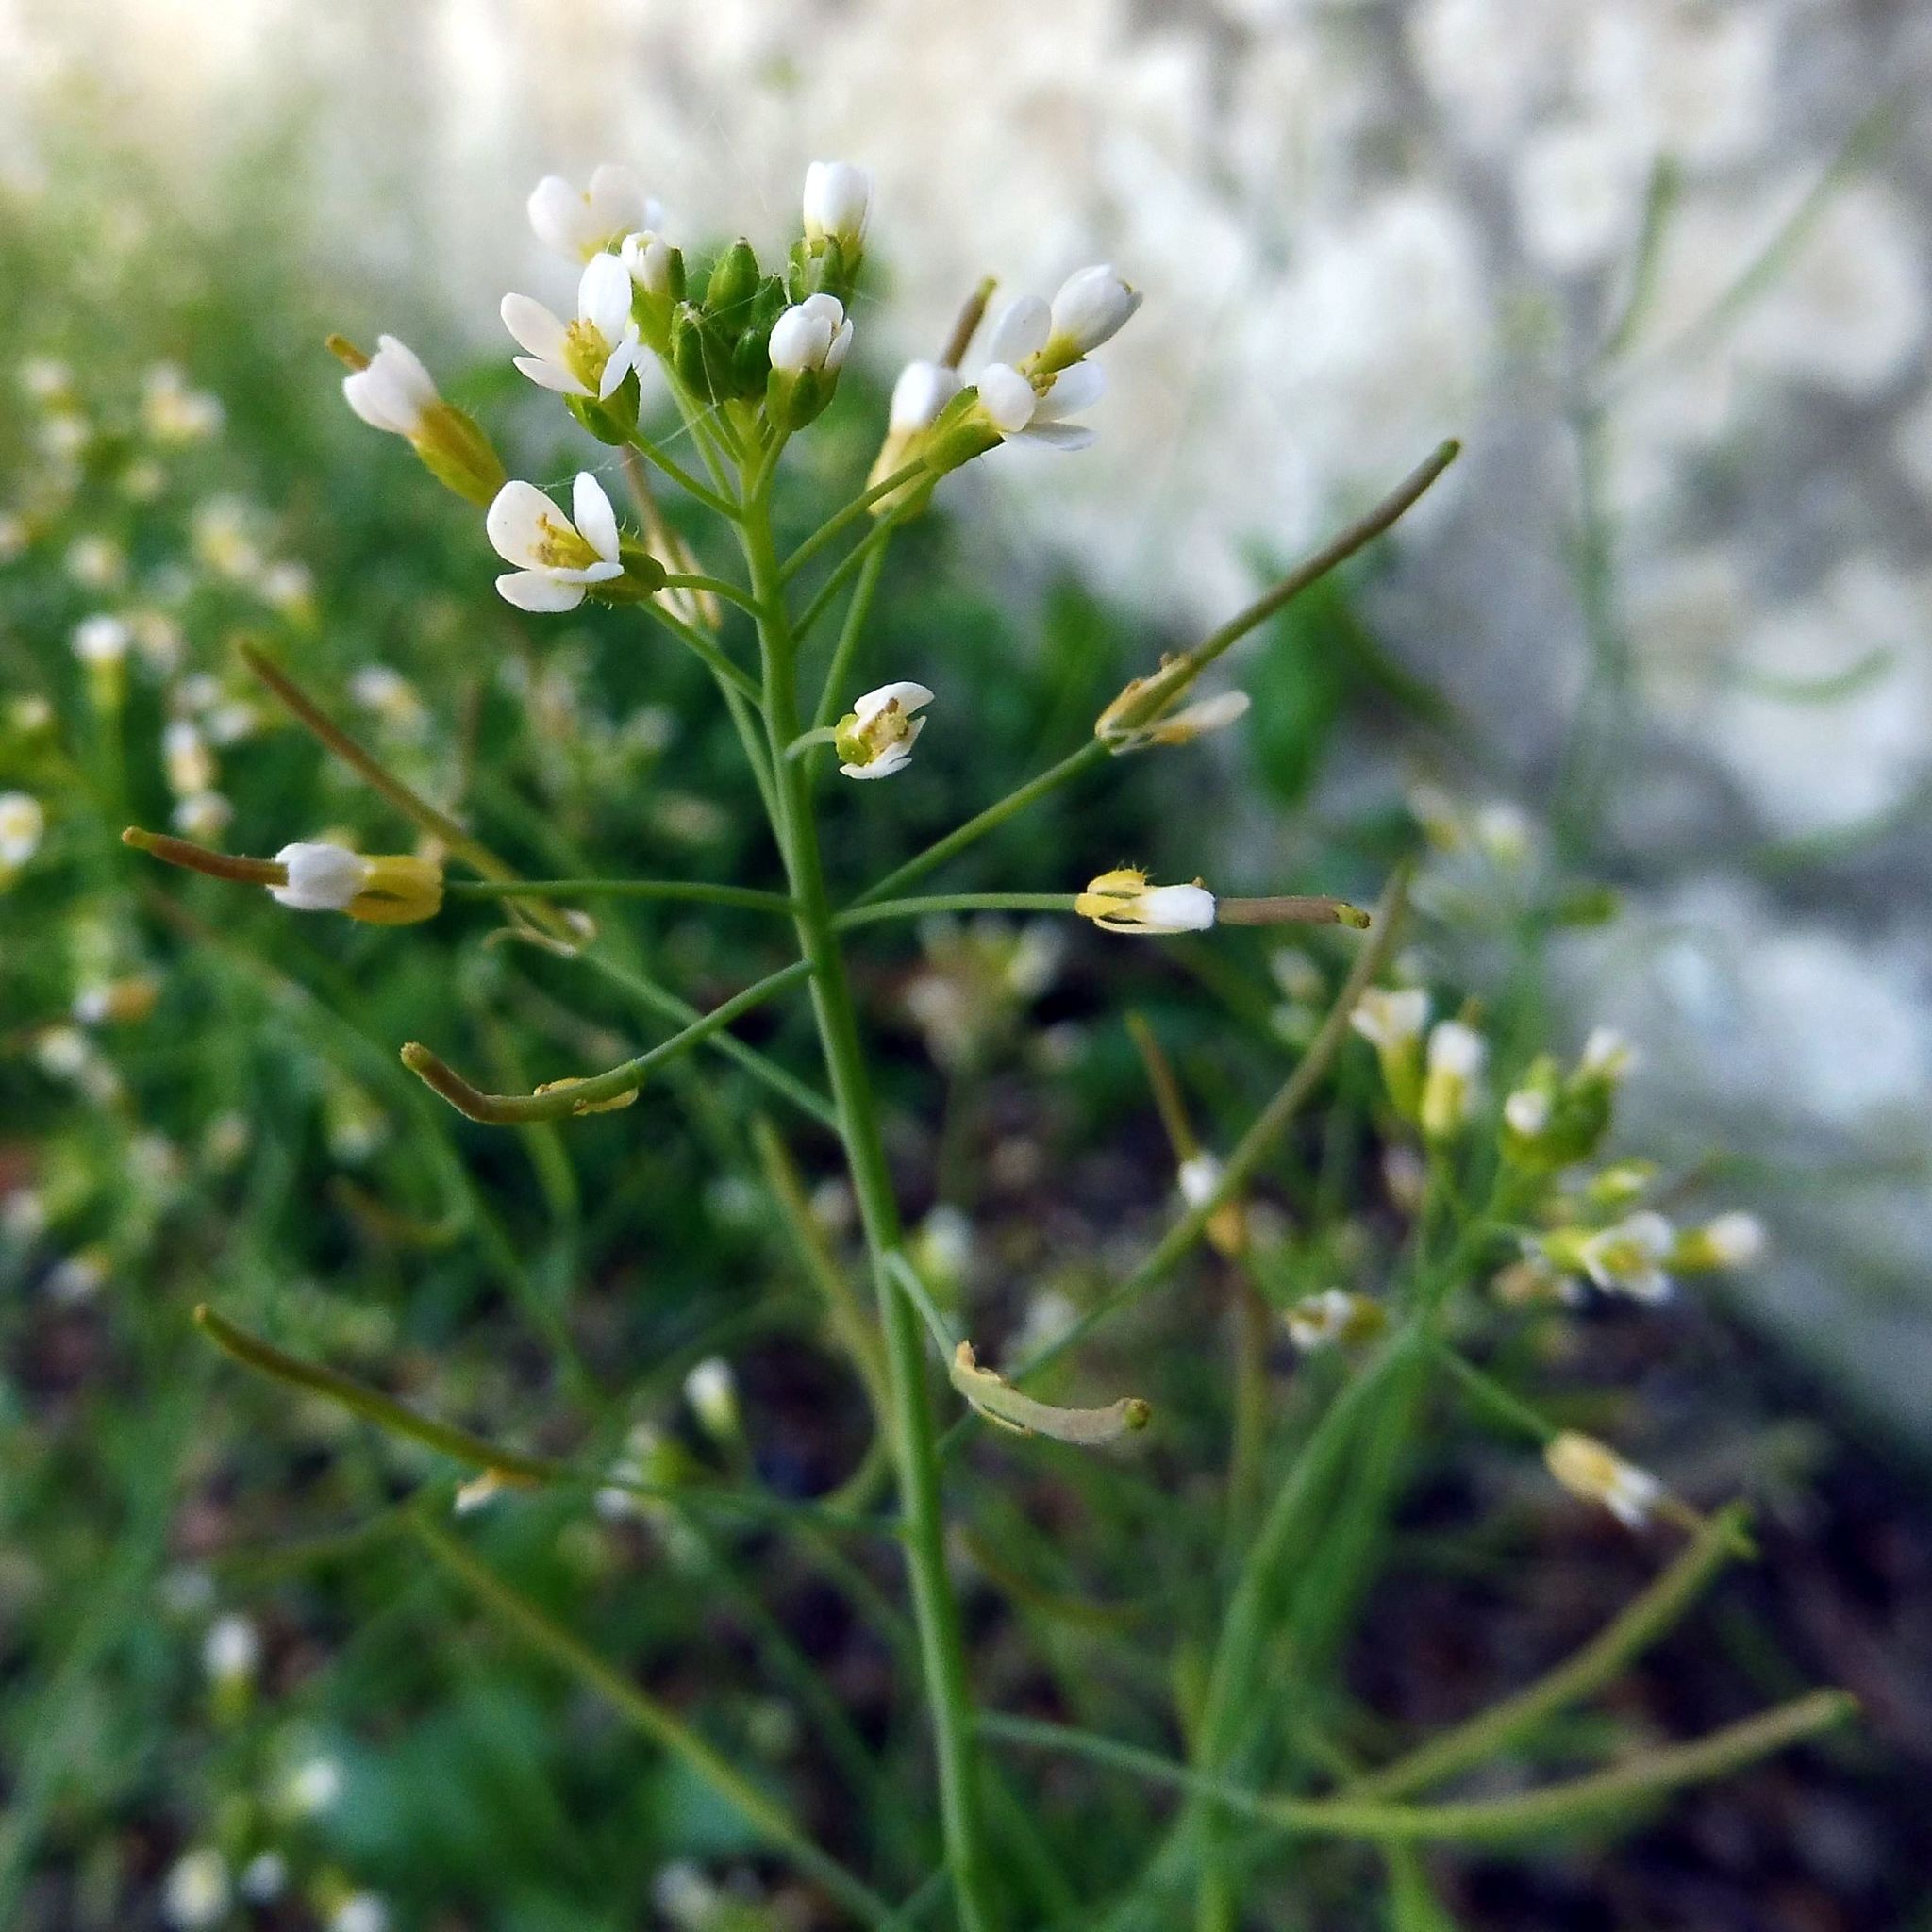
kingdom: Plantae
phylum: Tracheophyta
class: Magnoliopsida
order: Brassicales
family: Brassicaceae
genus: Arabidopsis
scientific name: Arabidopsis thaliana
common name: Thale cress
